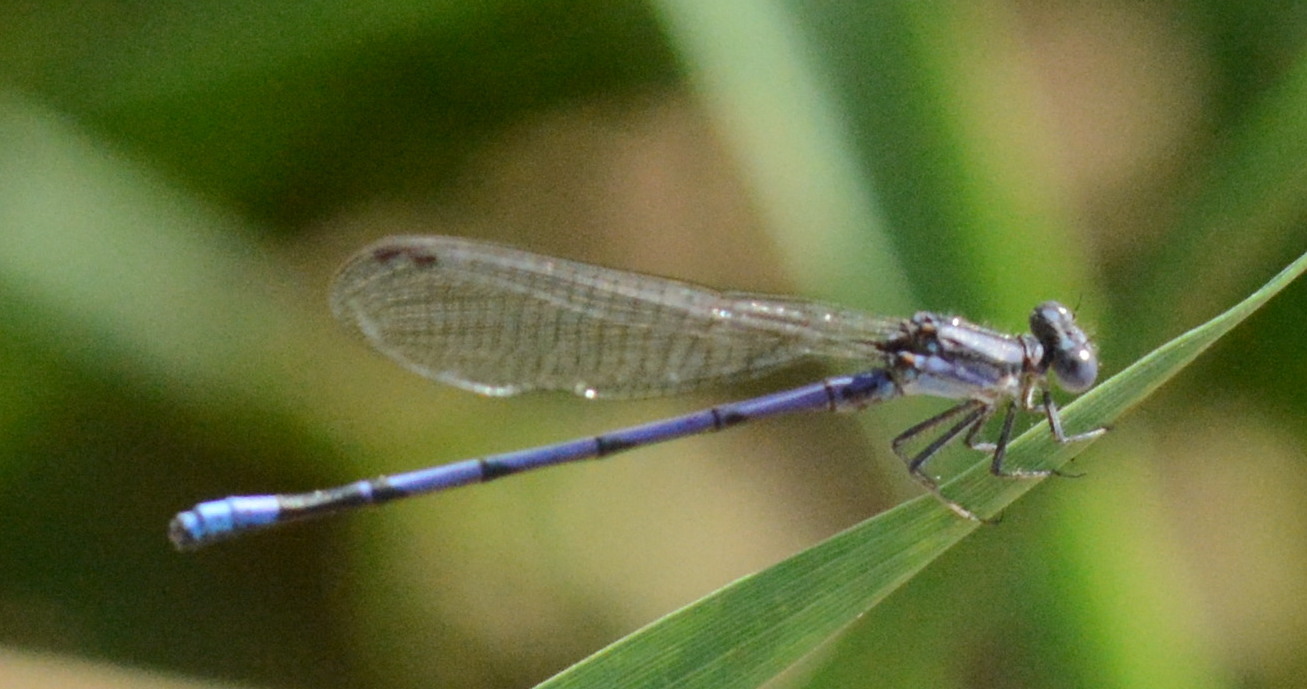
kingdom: Animalia
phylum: Arthropoda
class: Insecta
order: Odonata
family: Coenagrionidae
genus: Argia
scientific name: Argia fumipennis
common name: Variable dancer
